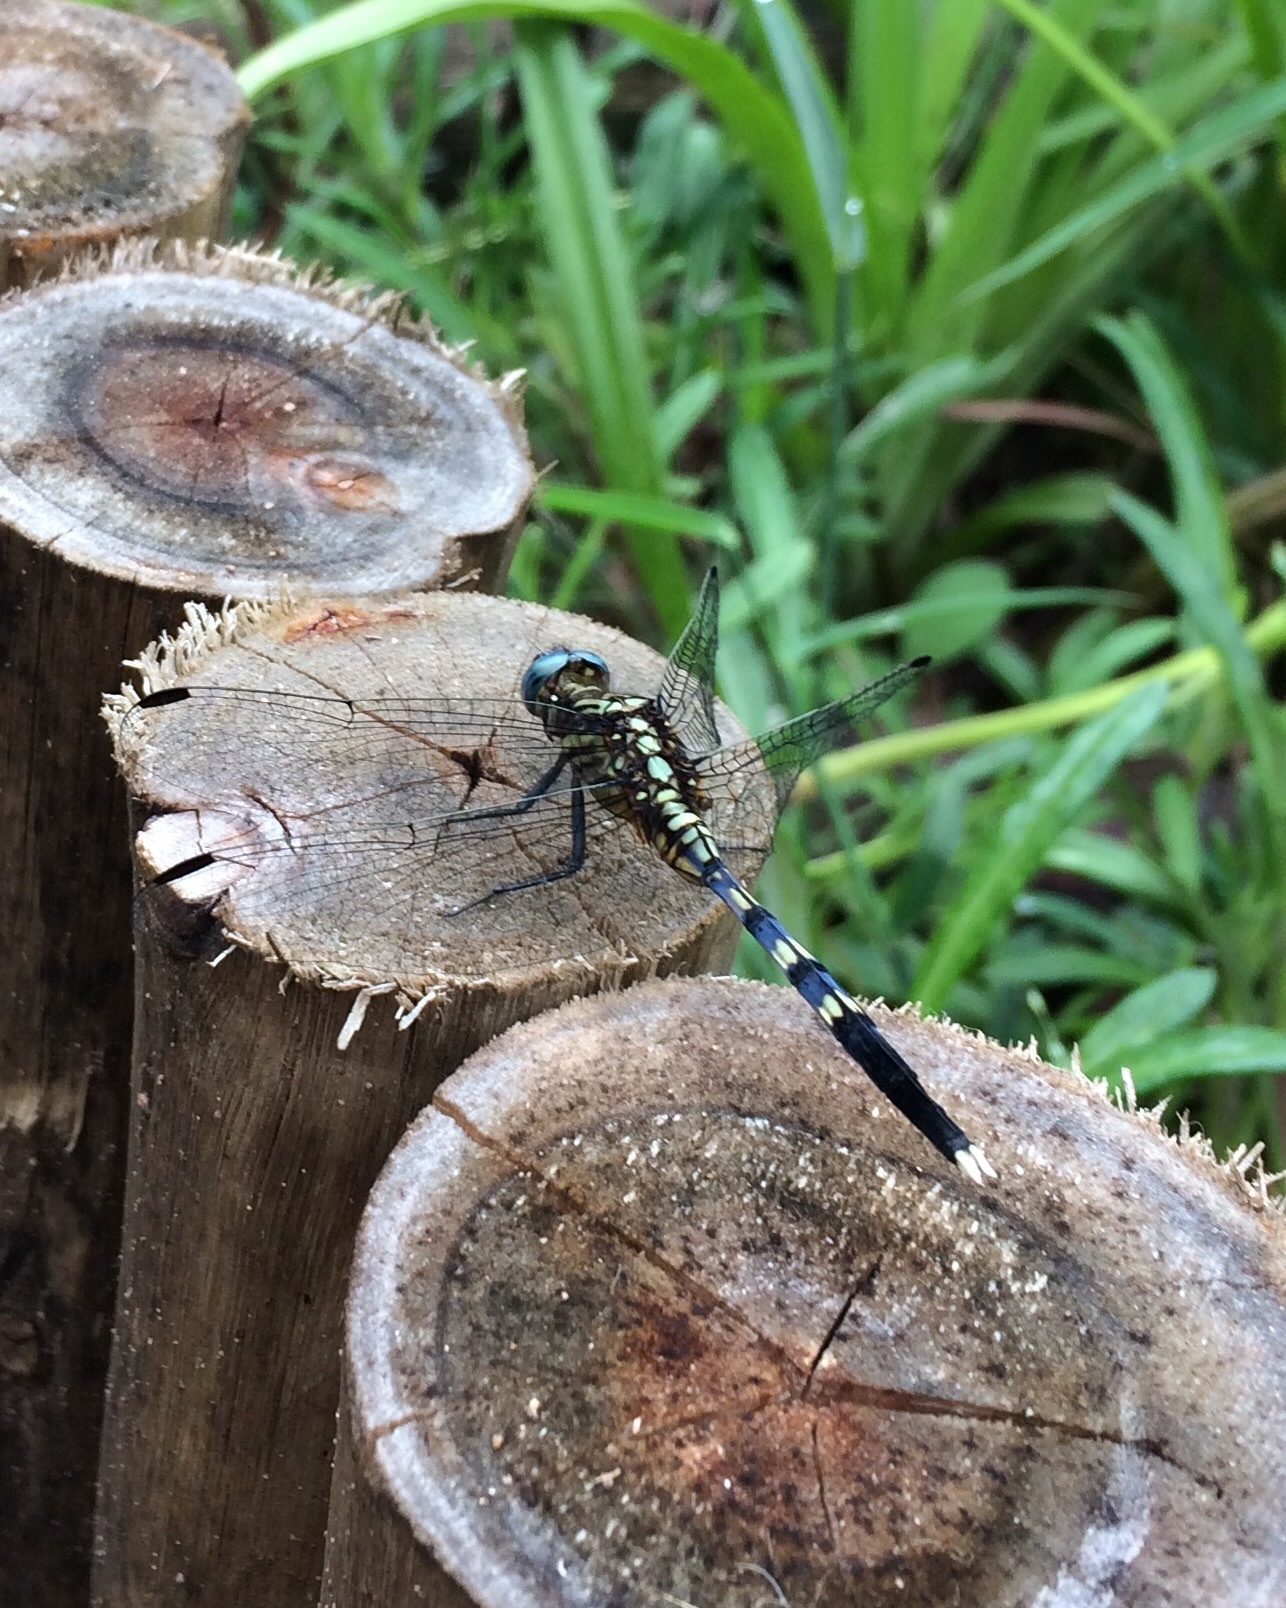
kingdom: Animalia
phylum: Arthropoda
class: Insecta
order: Odonata
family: Libellulidae
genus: Orthetrum
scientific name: Orthetrum julia
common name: Julia skimmer
